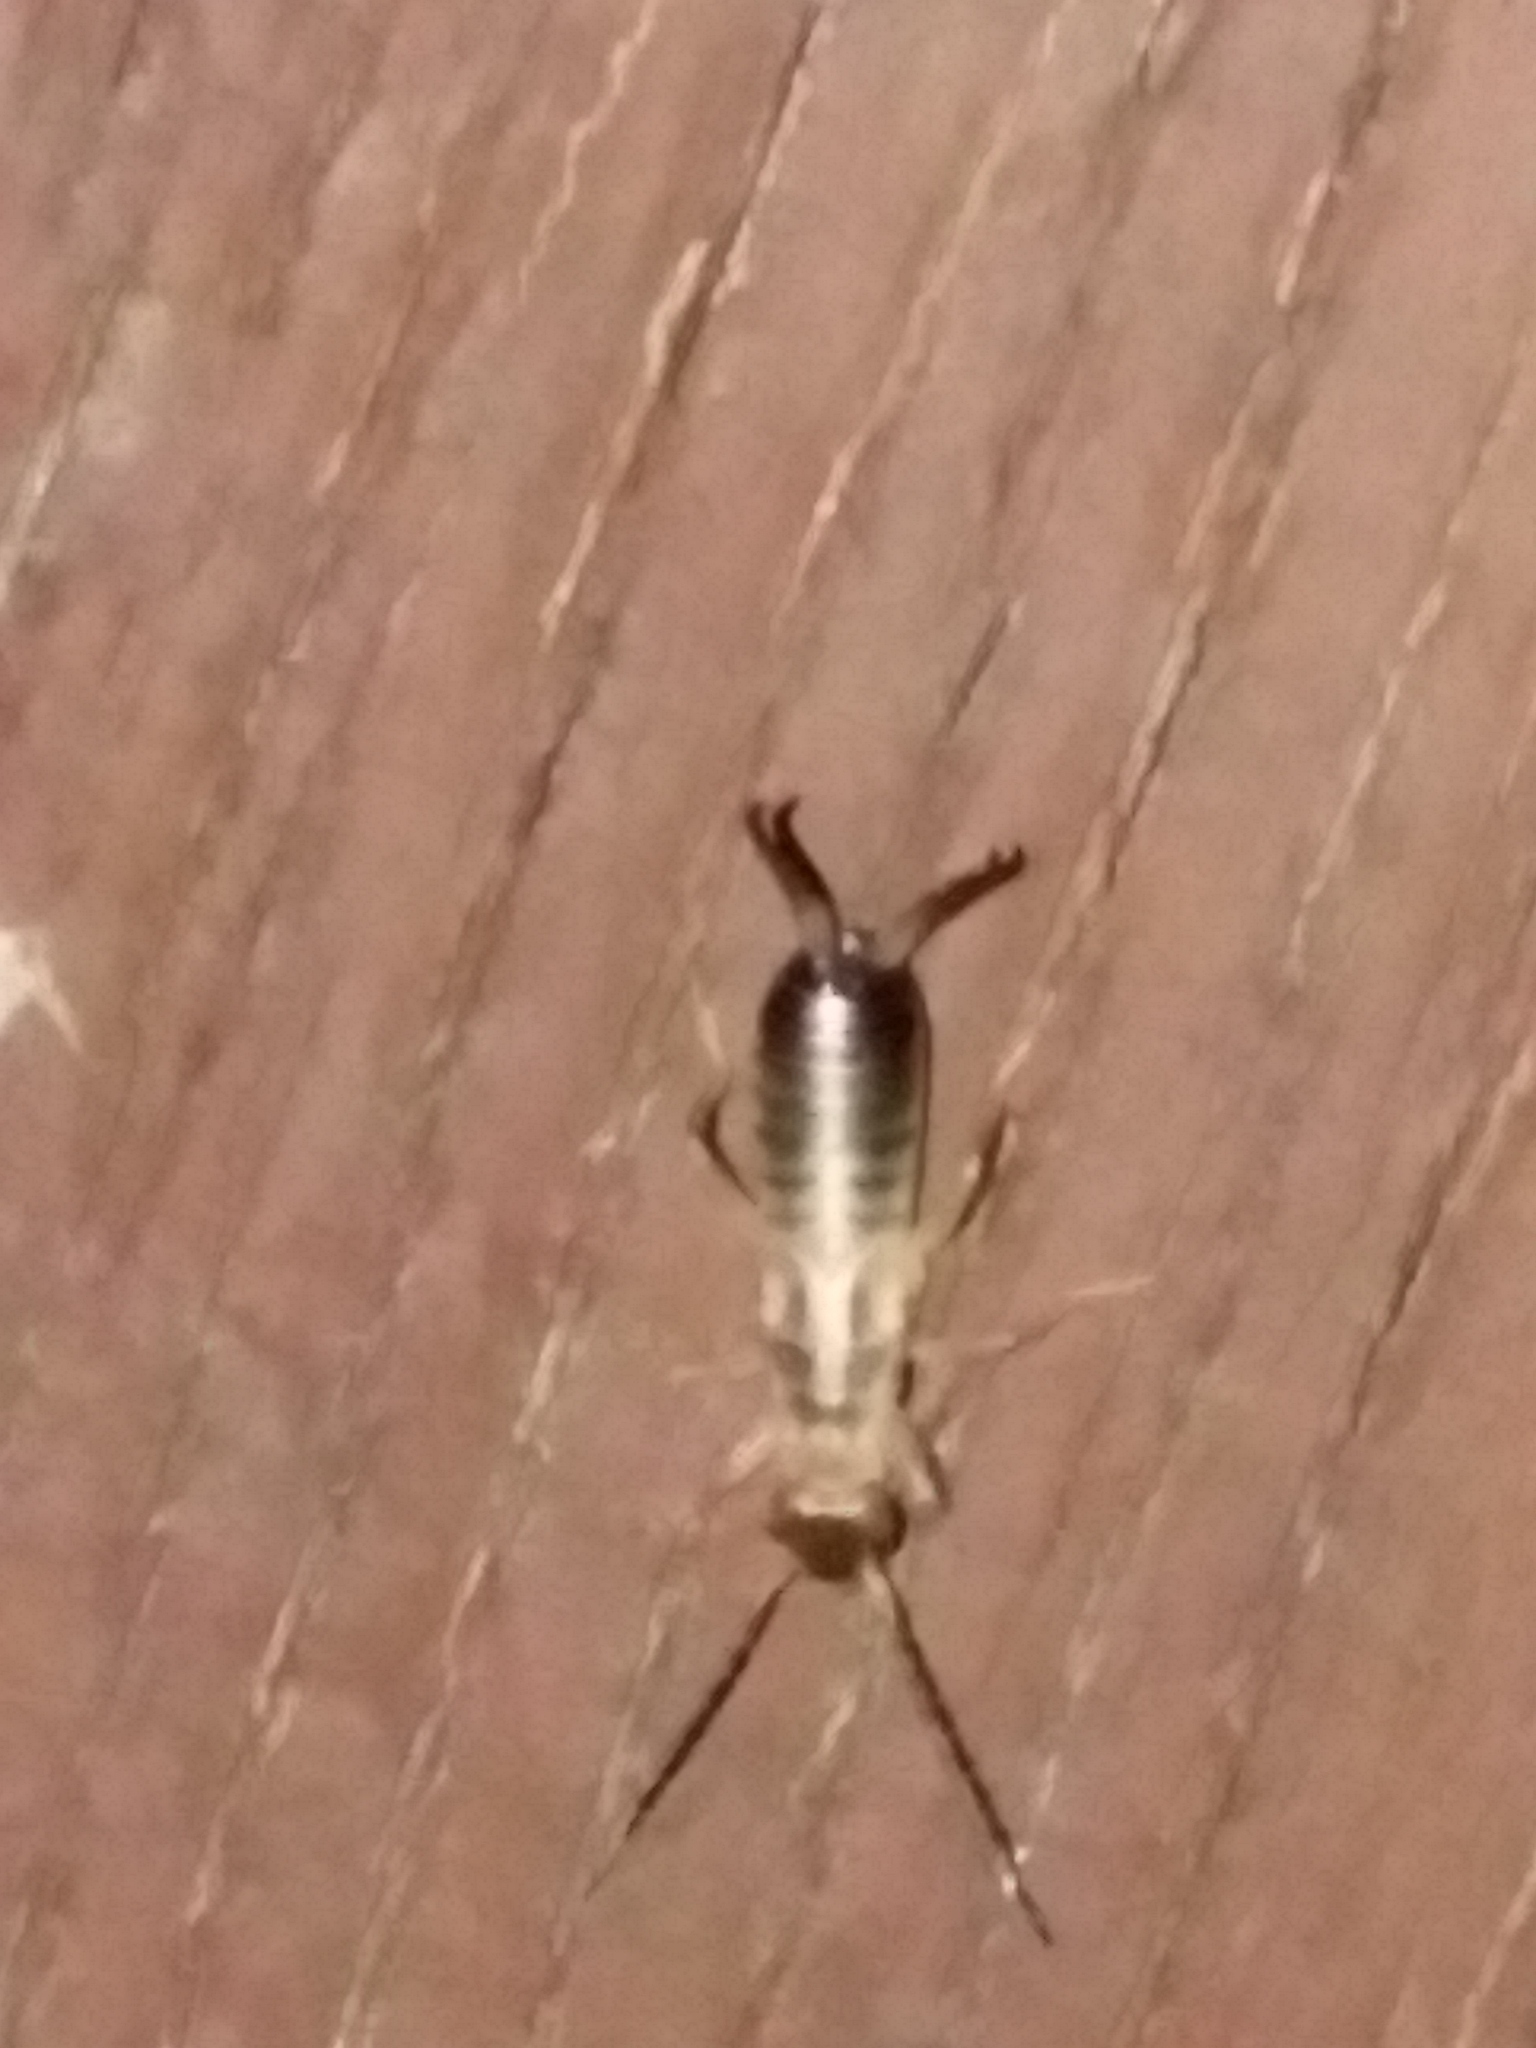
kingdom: Animalia
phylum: Arthropoda
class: Insecta
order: Dermaptera
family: Forficulidae
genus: Forficula
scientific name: Forficula
